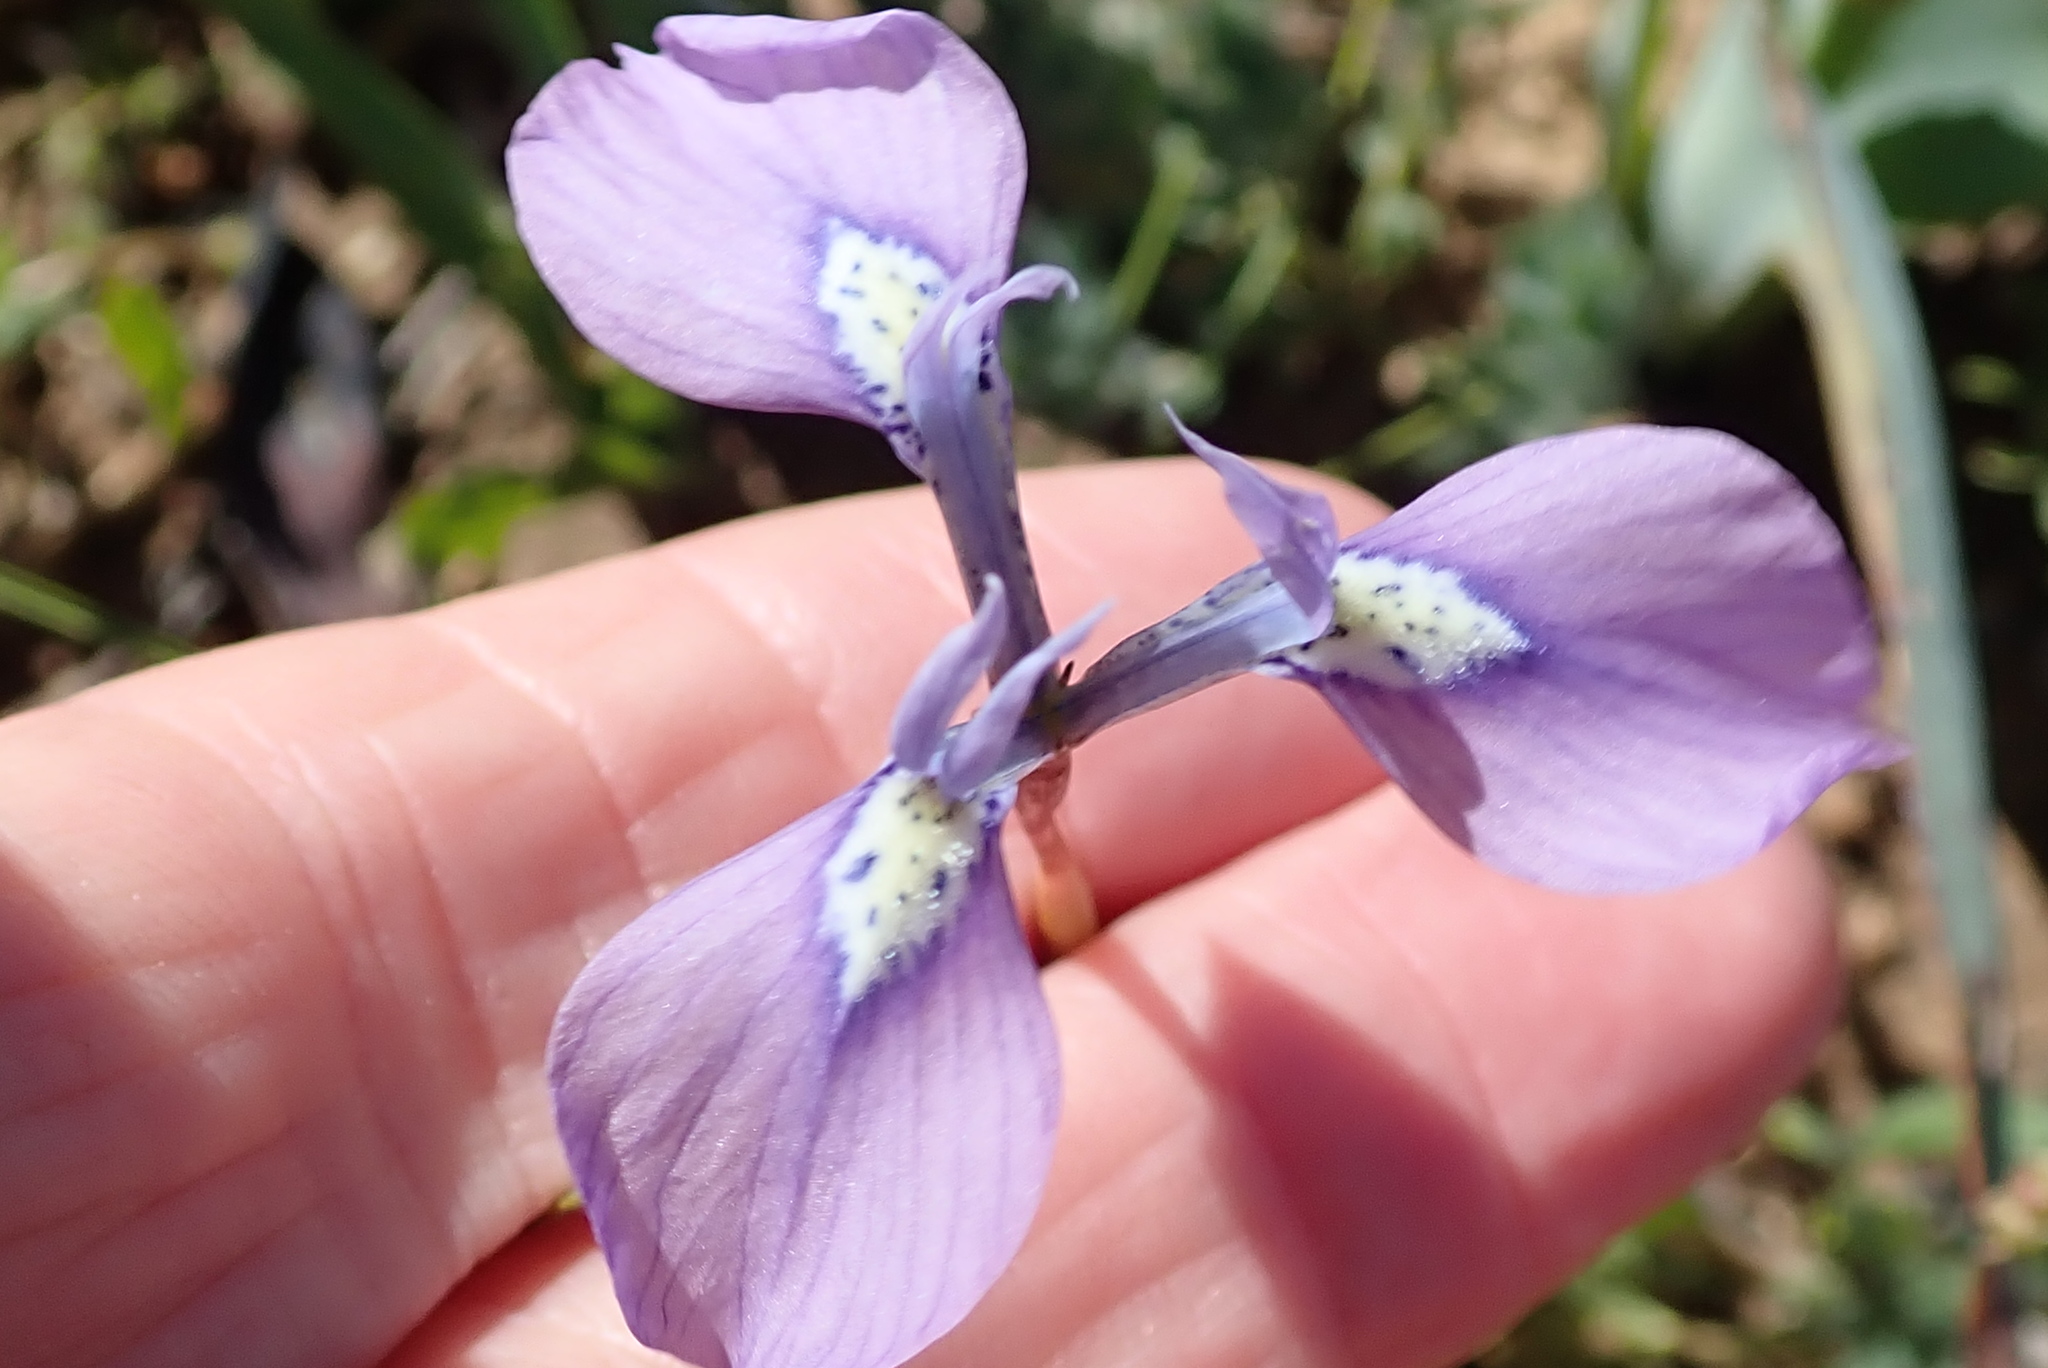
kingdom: Plantae
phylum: Tracheophyta
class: Liliopsida
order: Asparagales
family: Iridaceae
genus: Moraea
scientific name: Moraea tripetala
